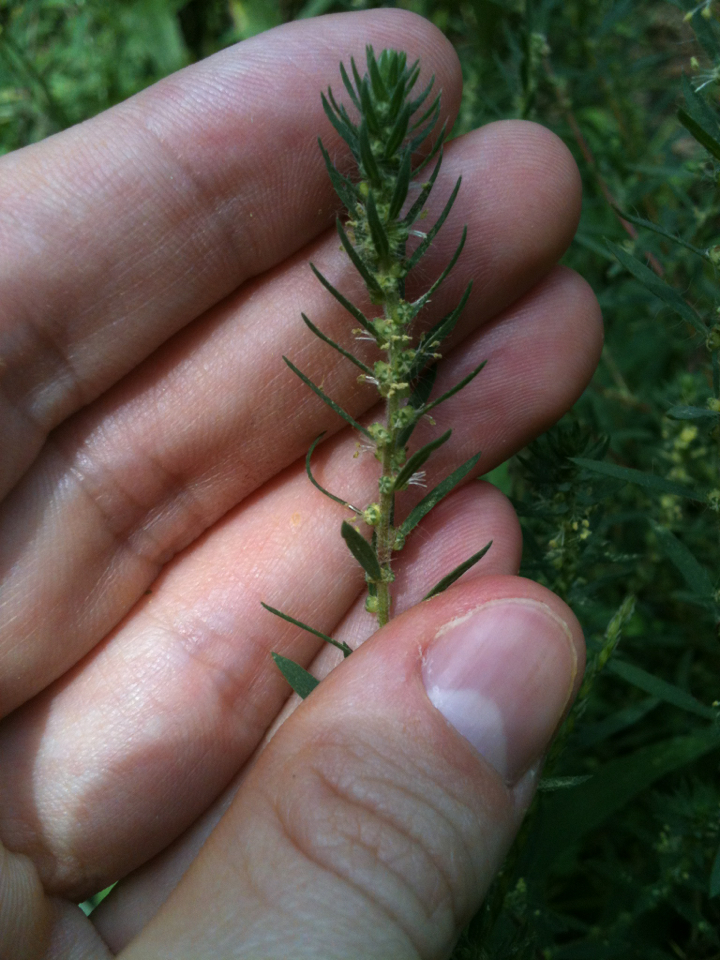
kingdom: Plantae
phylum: Tracheophyta
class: Magnoliopsida
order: Caryophyllales
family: Amaranthaceae
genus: Bassia
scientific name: Bassia scoparia
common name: Belvedere
